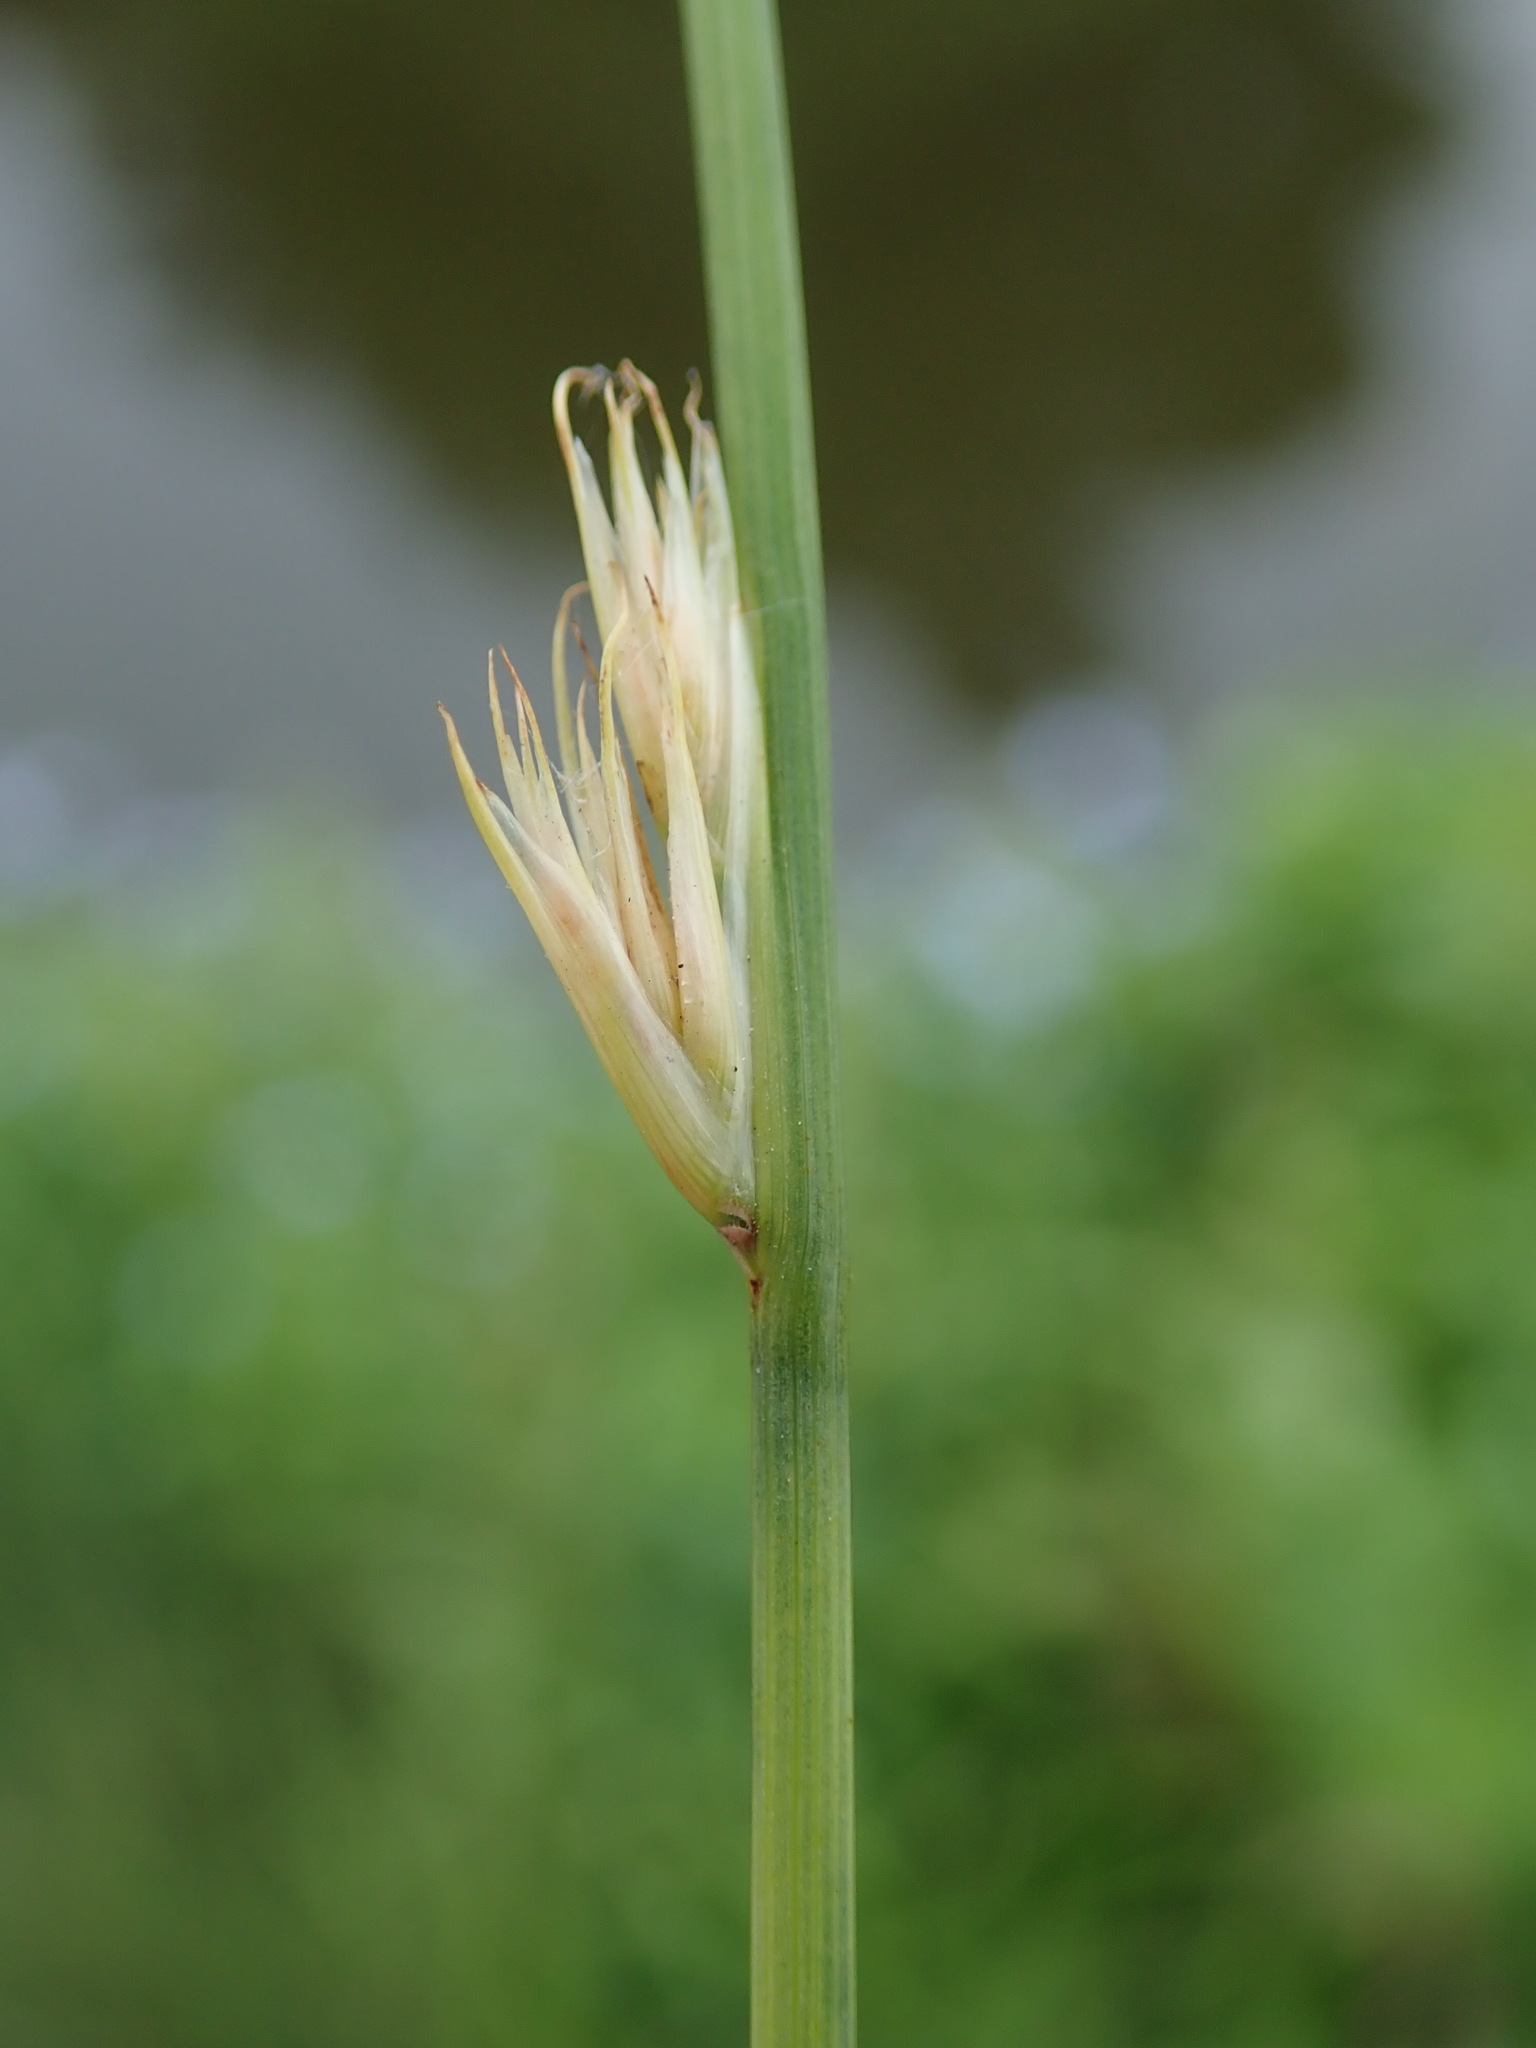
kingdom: Plantae
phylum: Tracheophyta
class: Liliopsida
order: Poales
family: Juncaceae
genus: Juncus
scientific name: Juncus inflexus
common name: Hard rush
